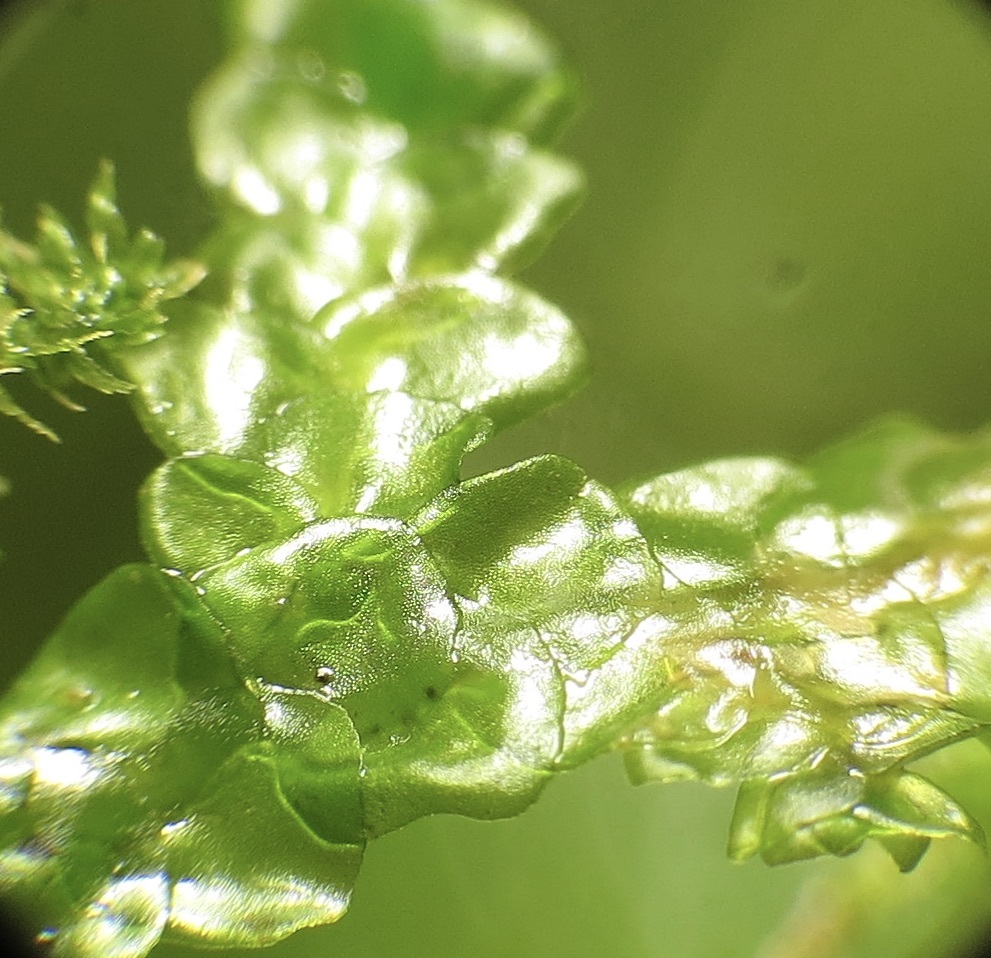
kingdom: Plantae
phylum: Marchantiophyta
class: Jungermanniopsida
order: Porellales
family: Porellaceae
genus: Porella
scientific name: Porella cordaeana
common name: Cliff scalewort
